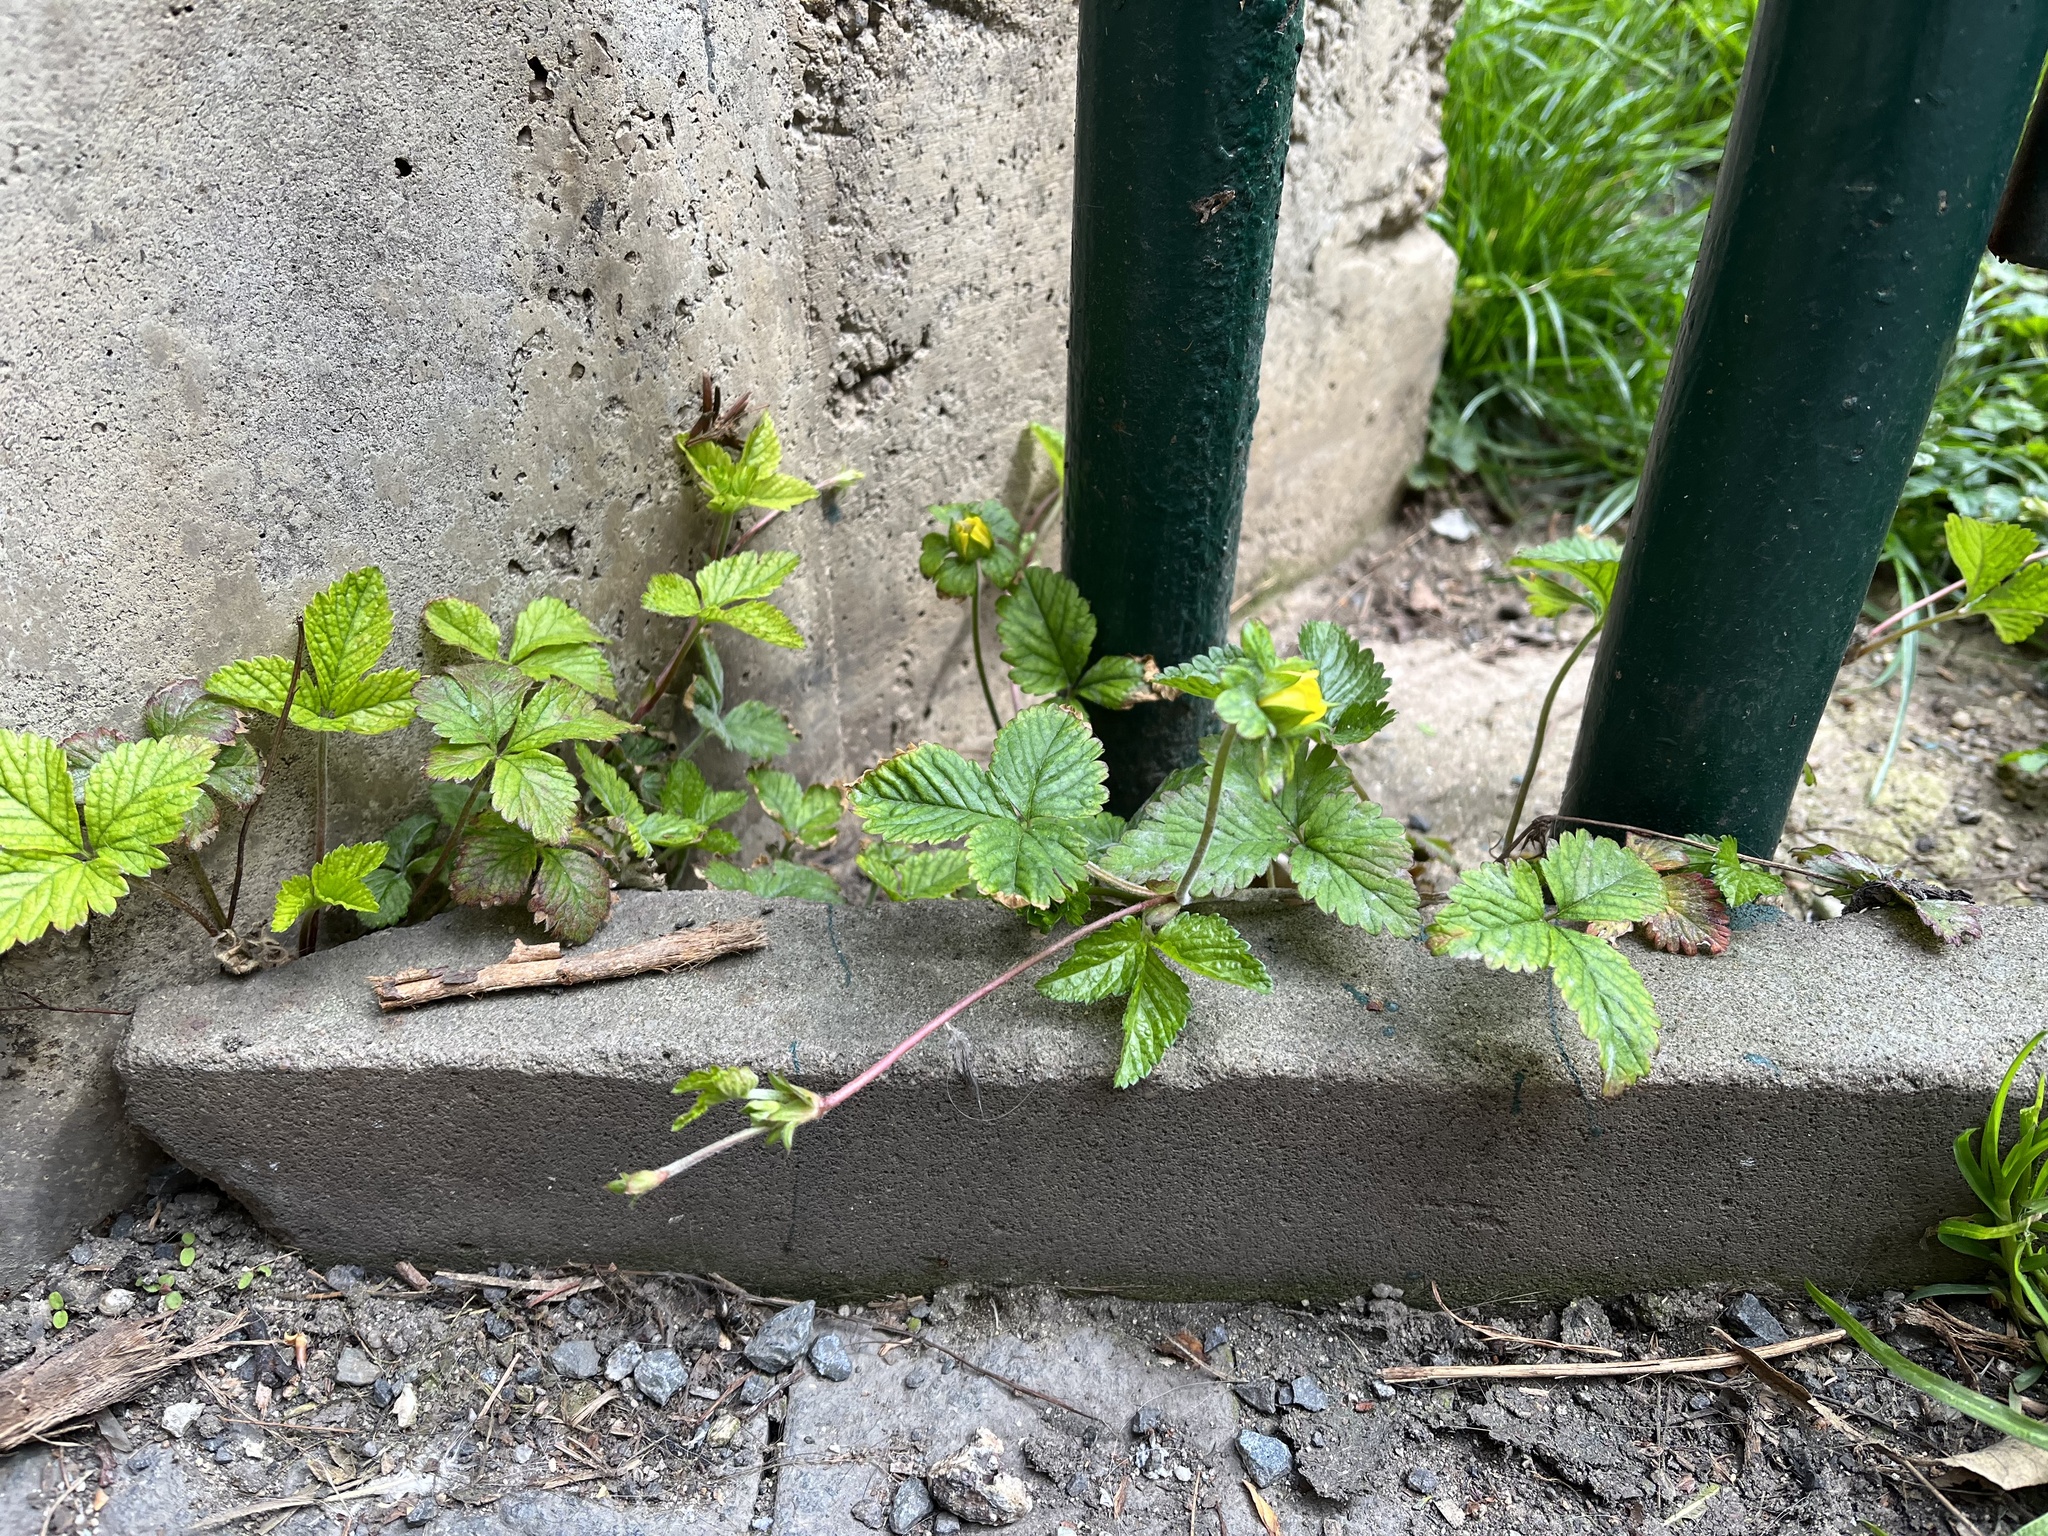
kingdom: Plantae
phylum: Tracheophyta
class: Magnoliopsida
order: Rosales
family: Rosaceae
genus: Potentilla
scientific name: Potentilla indica
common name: Yellow-flowered strawberry
